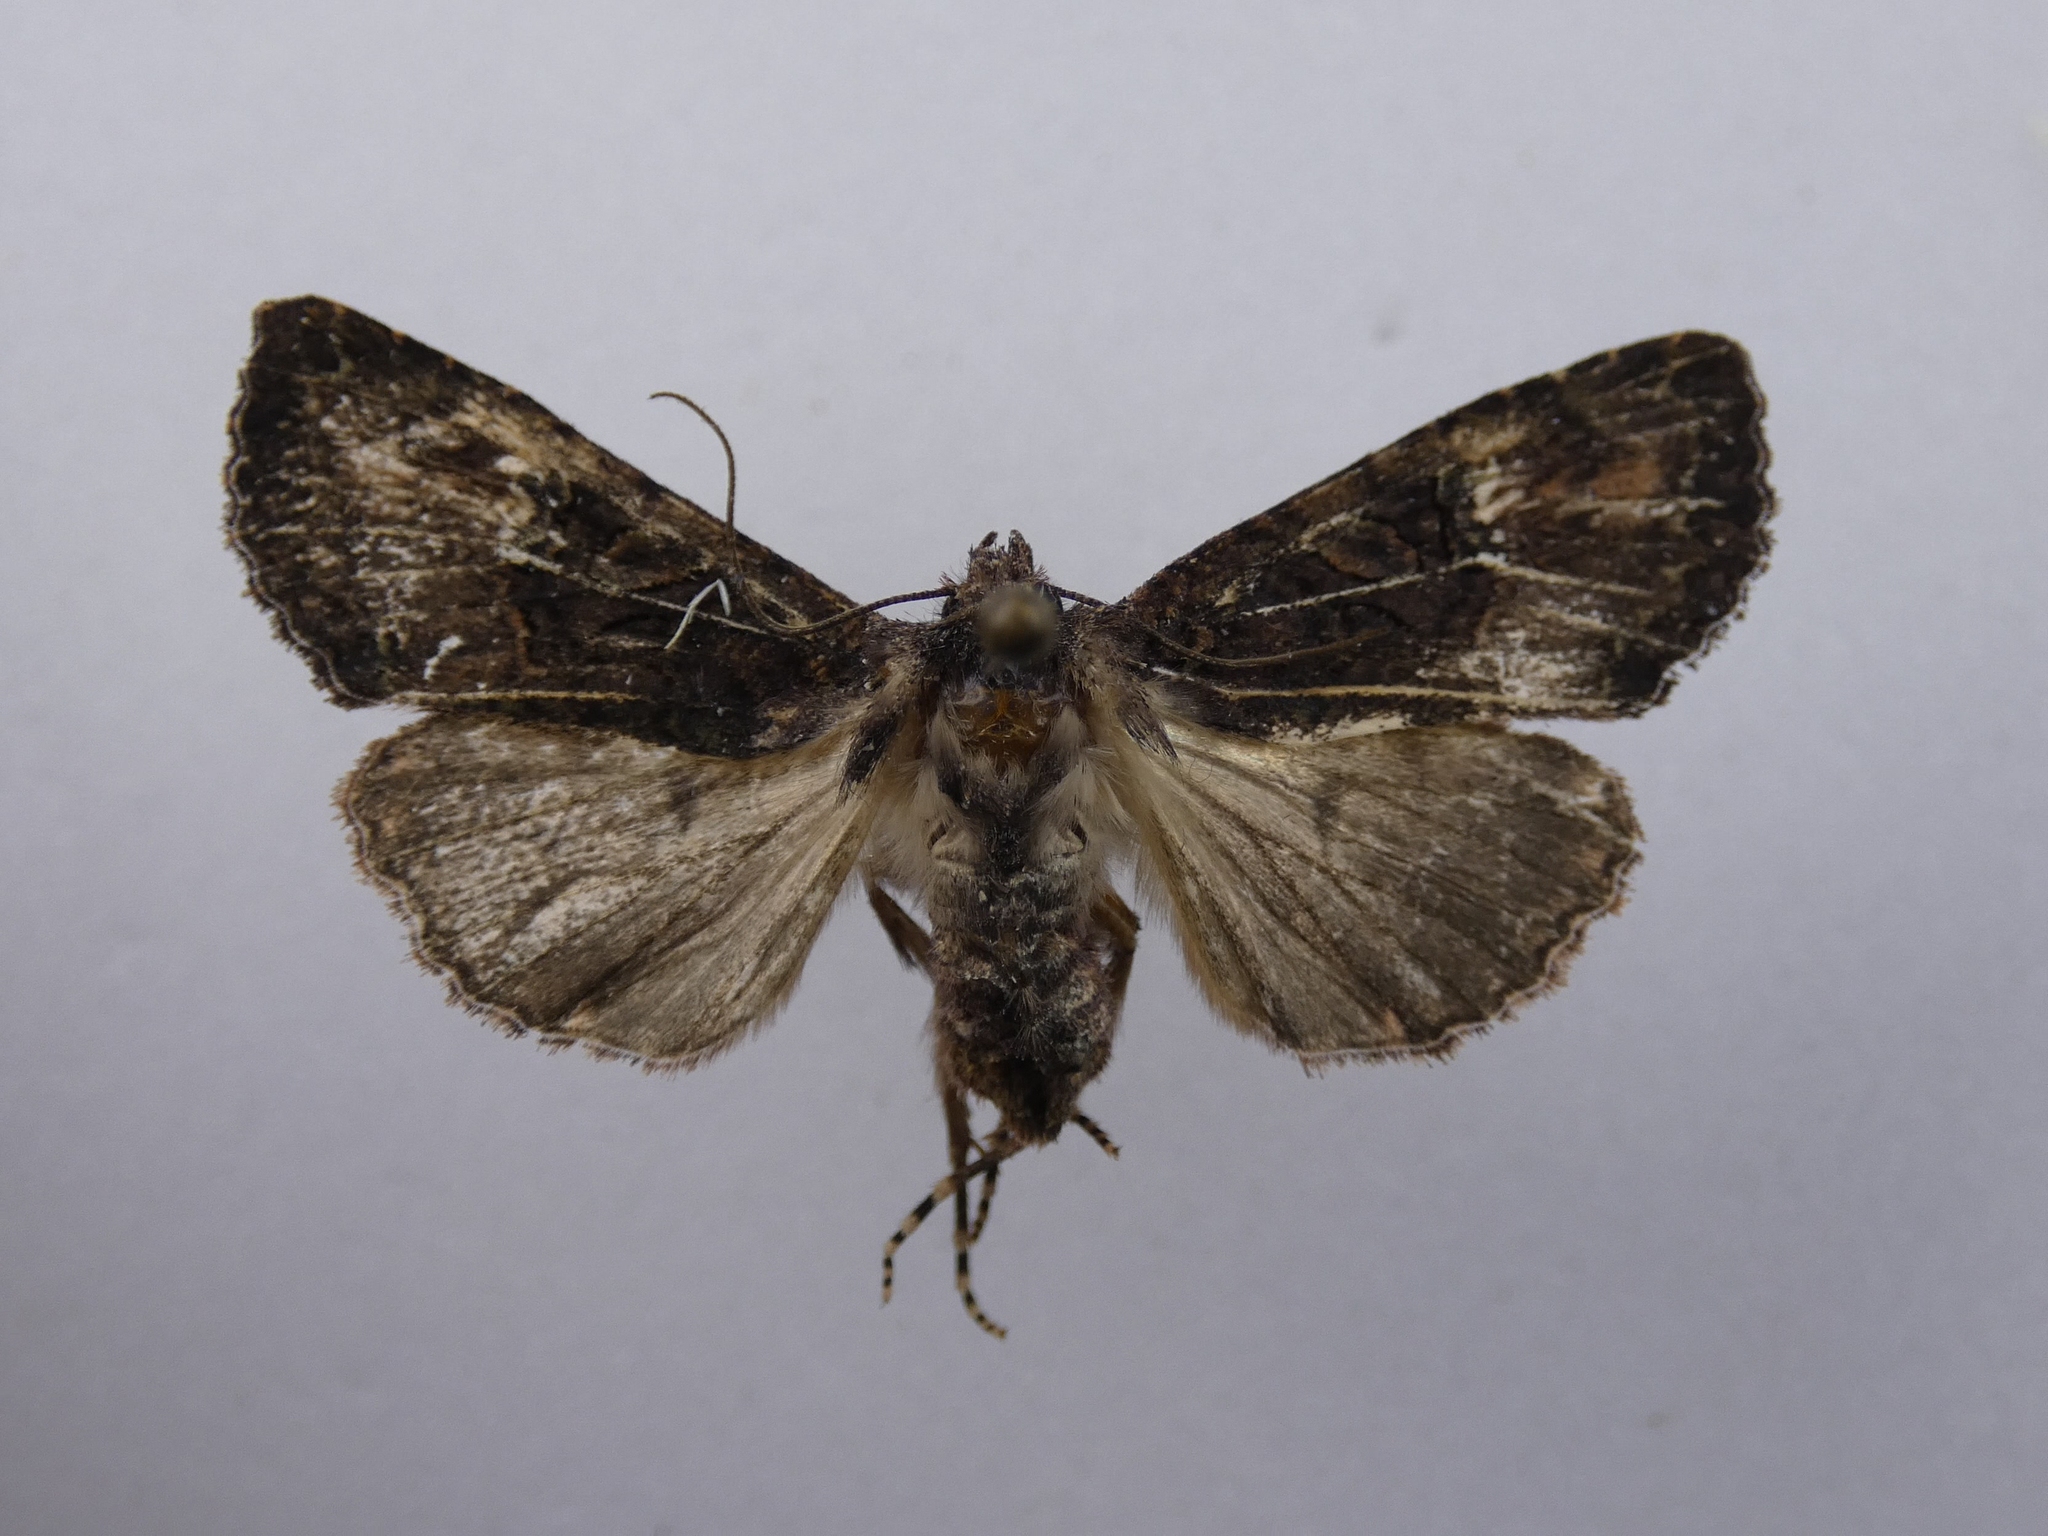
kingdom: Animalia
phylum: Arthropoda
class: Insecta
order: Lepidoptera
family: Noctuidae
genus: Meterana
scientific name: Meterana ochthistis
